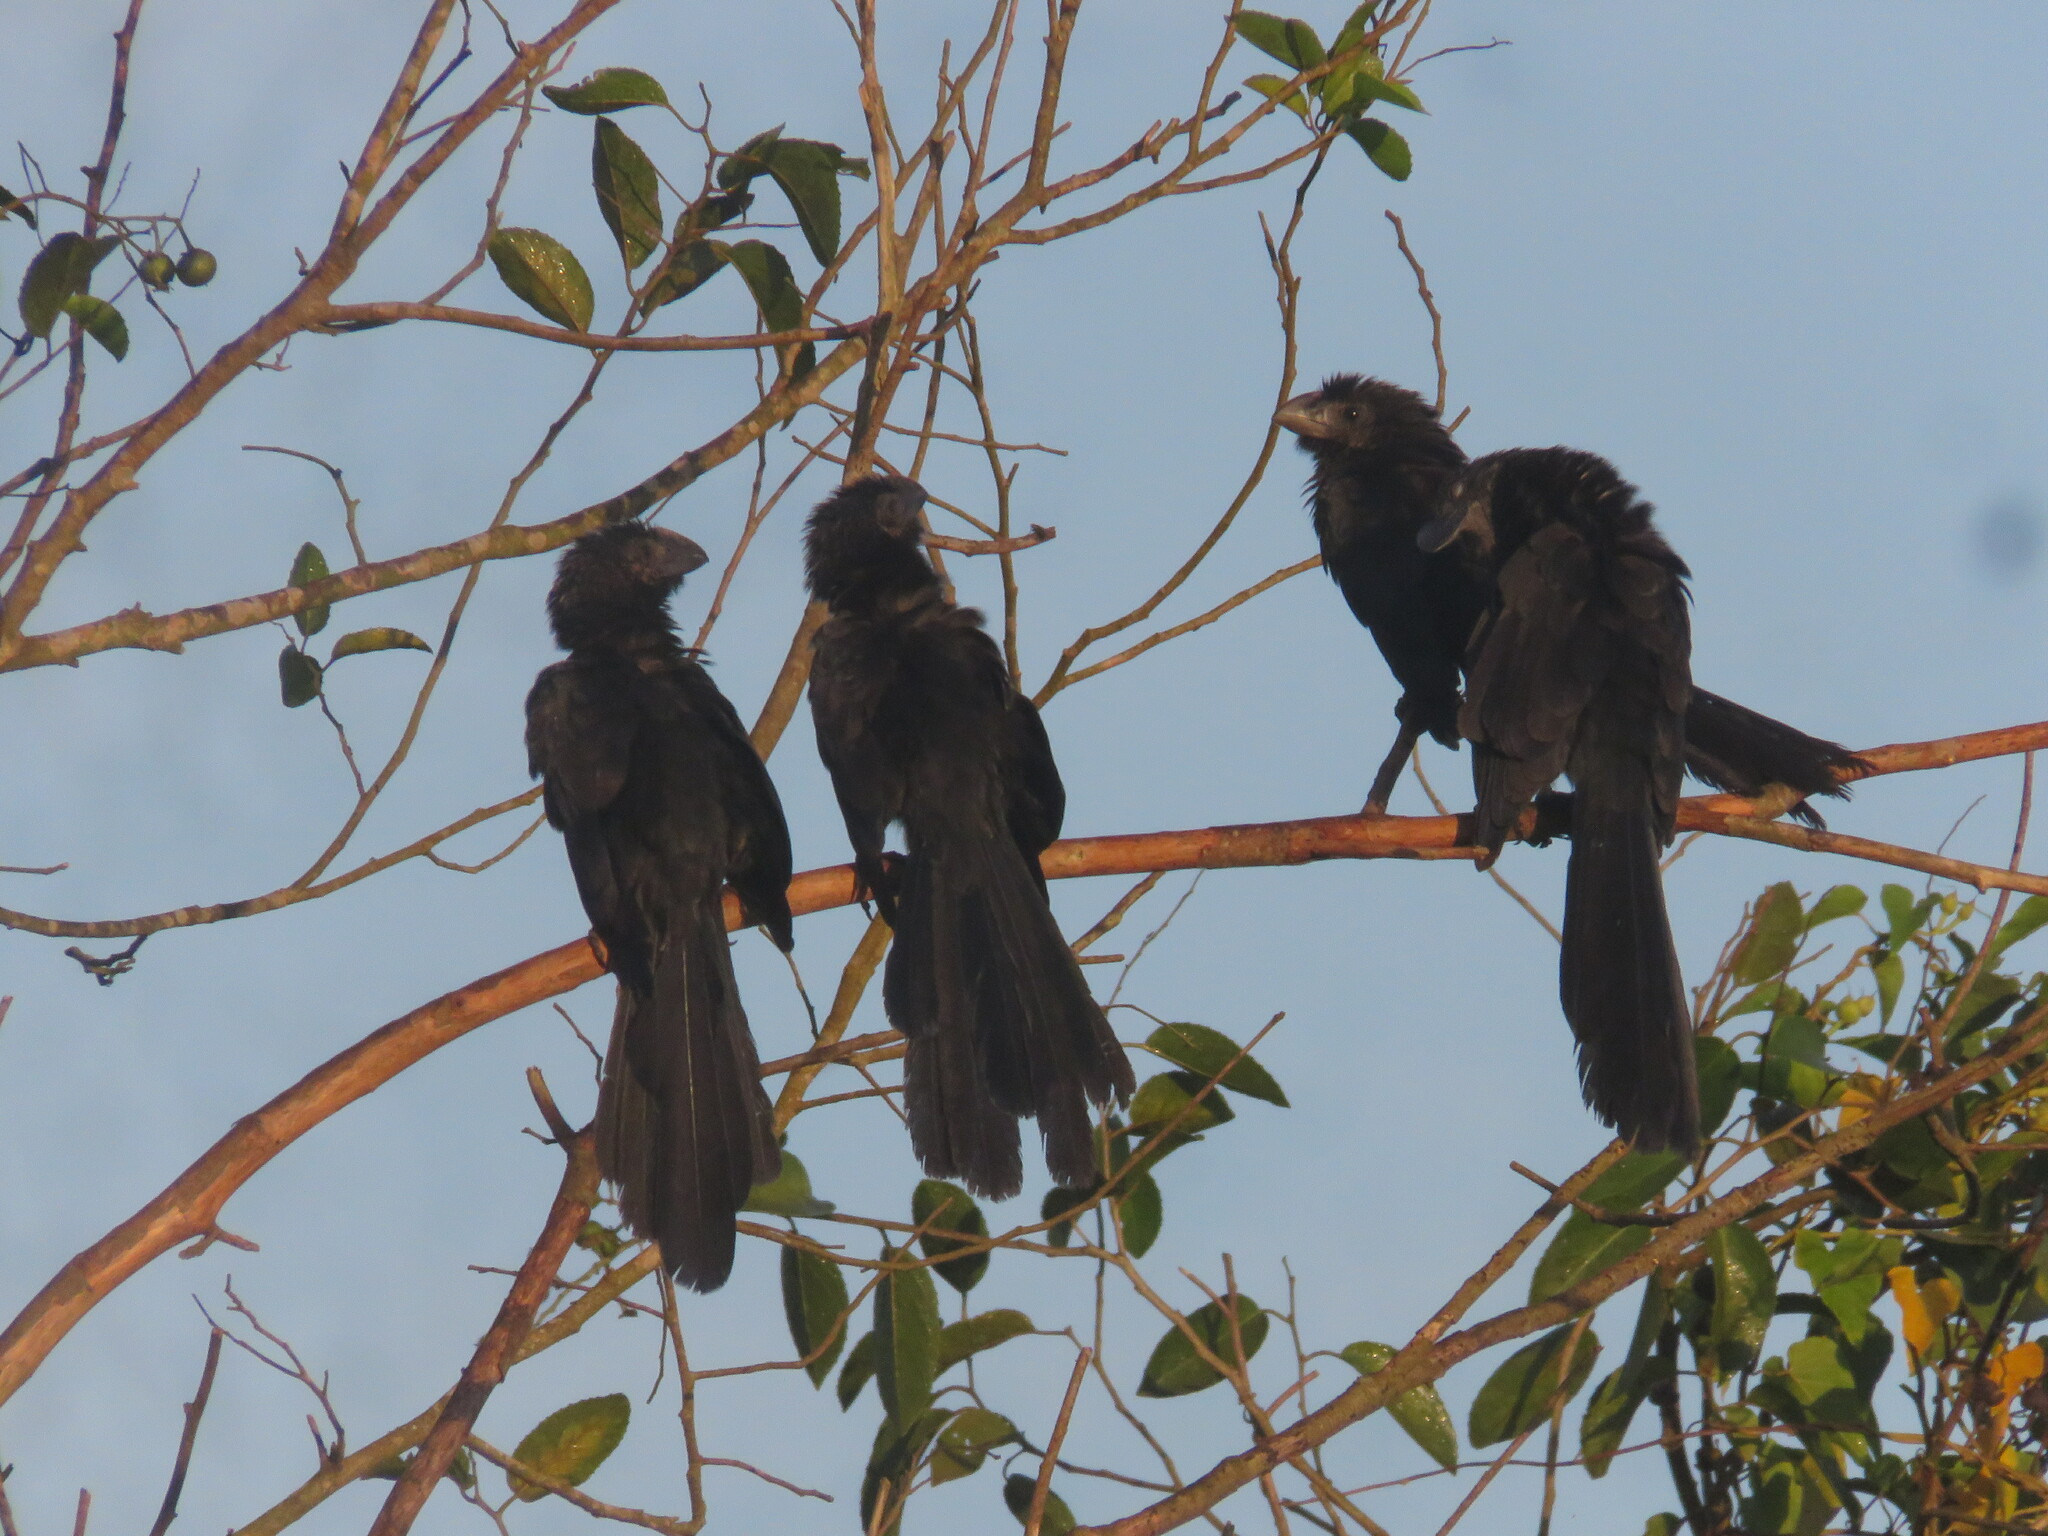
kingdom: Animalia
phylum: Chordata
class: Aves
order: Cuculiformes
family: Cuculidae
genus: Crotophaga
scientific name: Crotophaga ani
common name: Smooth-billed ani
